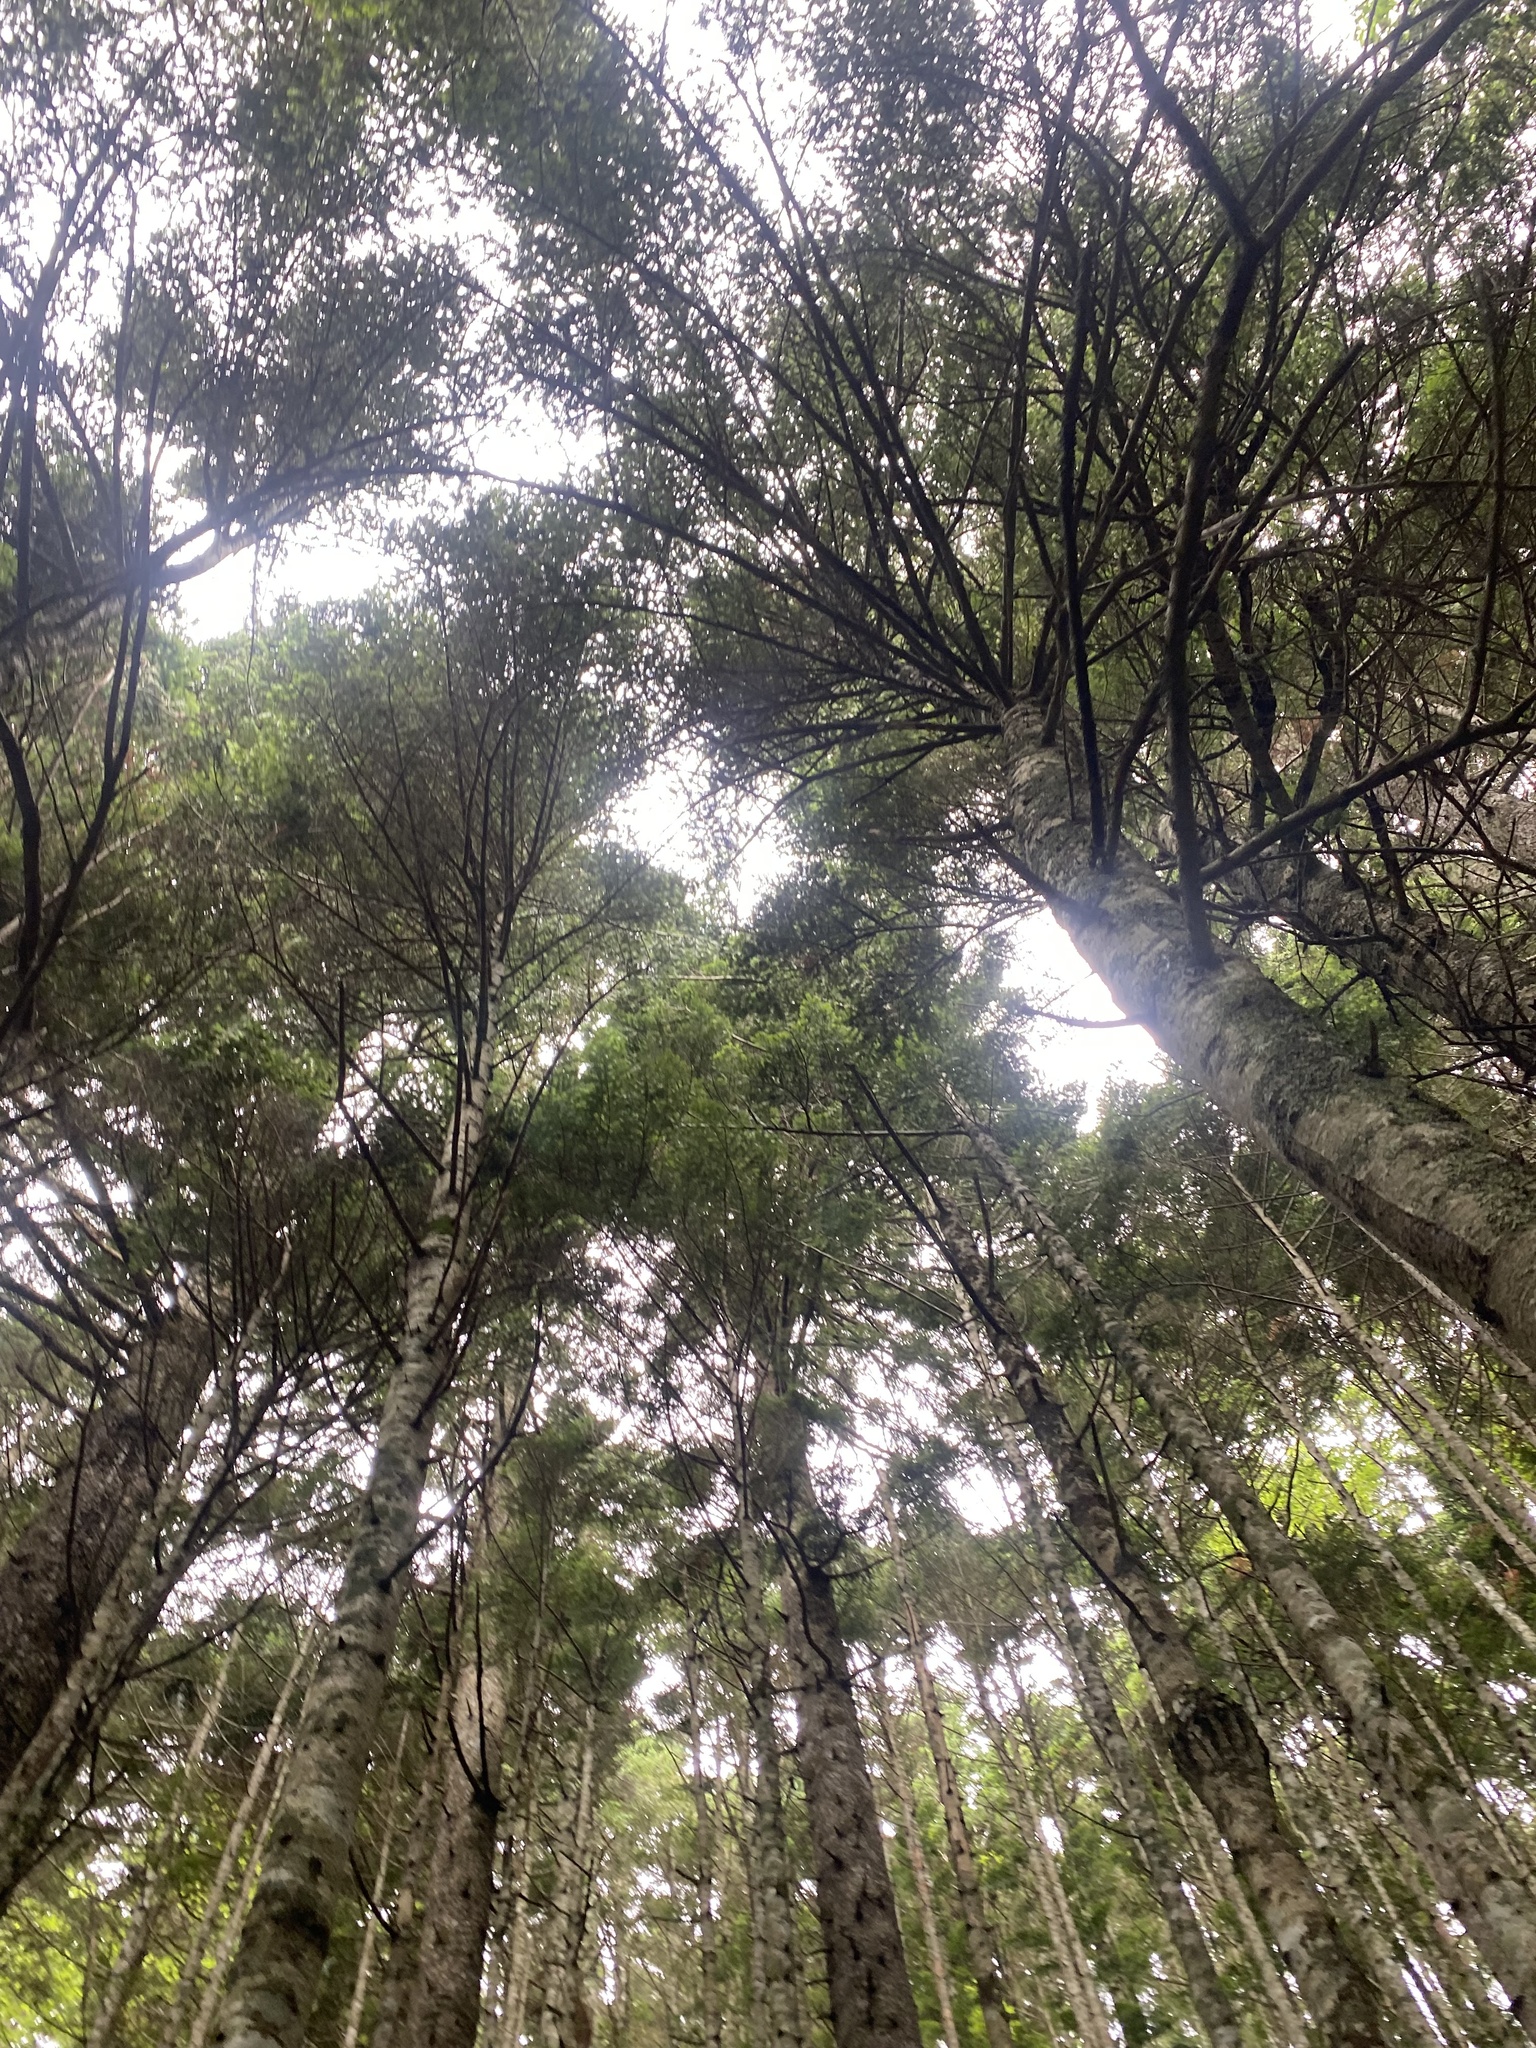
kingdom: Plantae
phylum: Tracheophyta
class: Pinopsida
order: Pinales
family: Pinaceae
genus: Abies
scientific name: Abies sachalinensis
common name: Sakhalin fir
